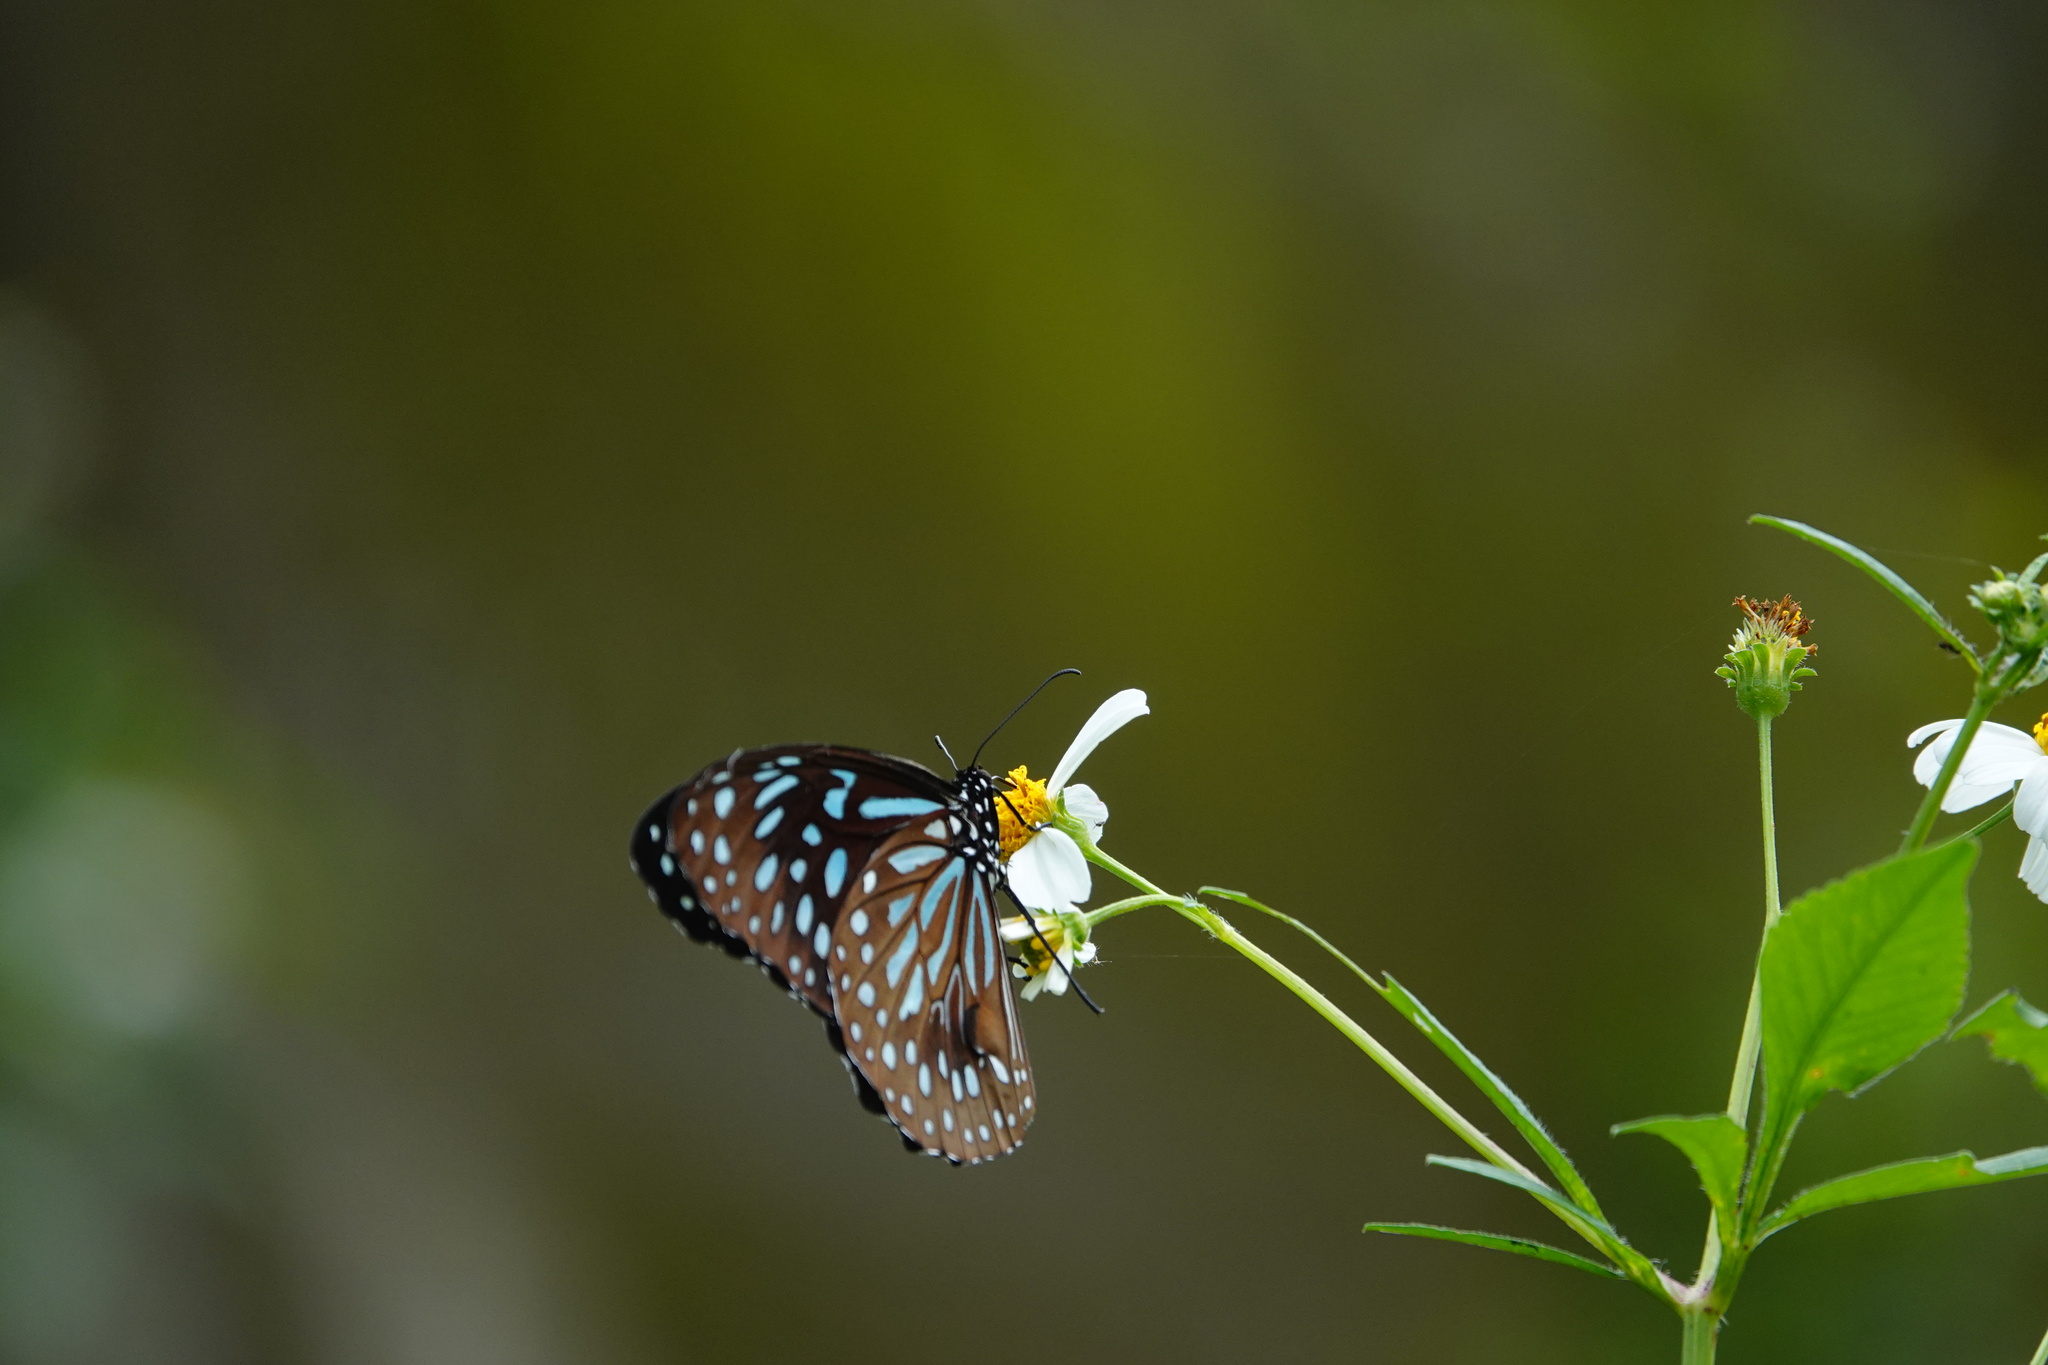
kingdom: Animalia
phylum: Arthropoda
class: Insecta
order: Lepidoptera
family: Nymphalidae
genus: Tirumala
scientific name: Tirumala septentrionis
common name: Dark blue tiger butterfly
